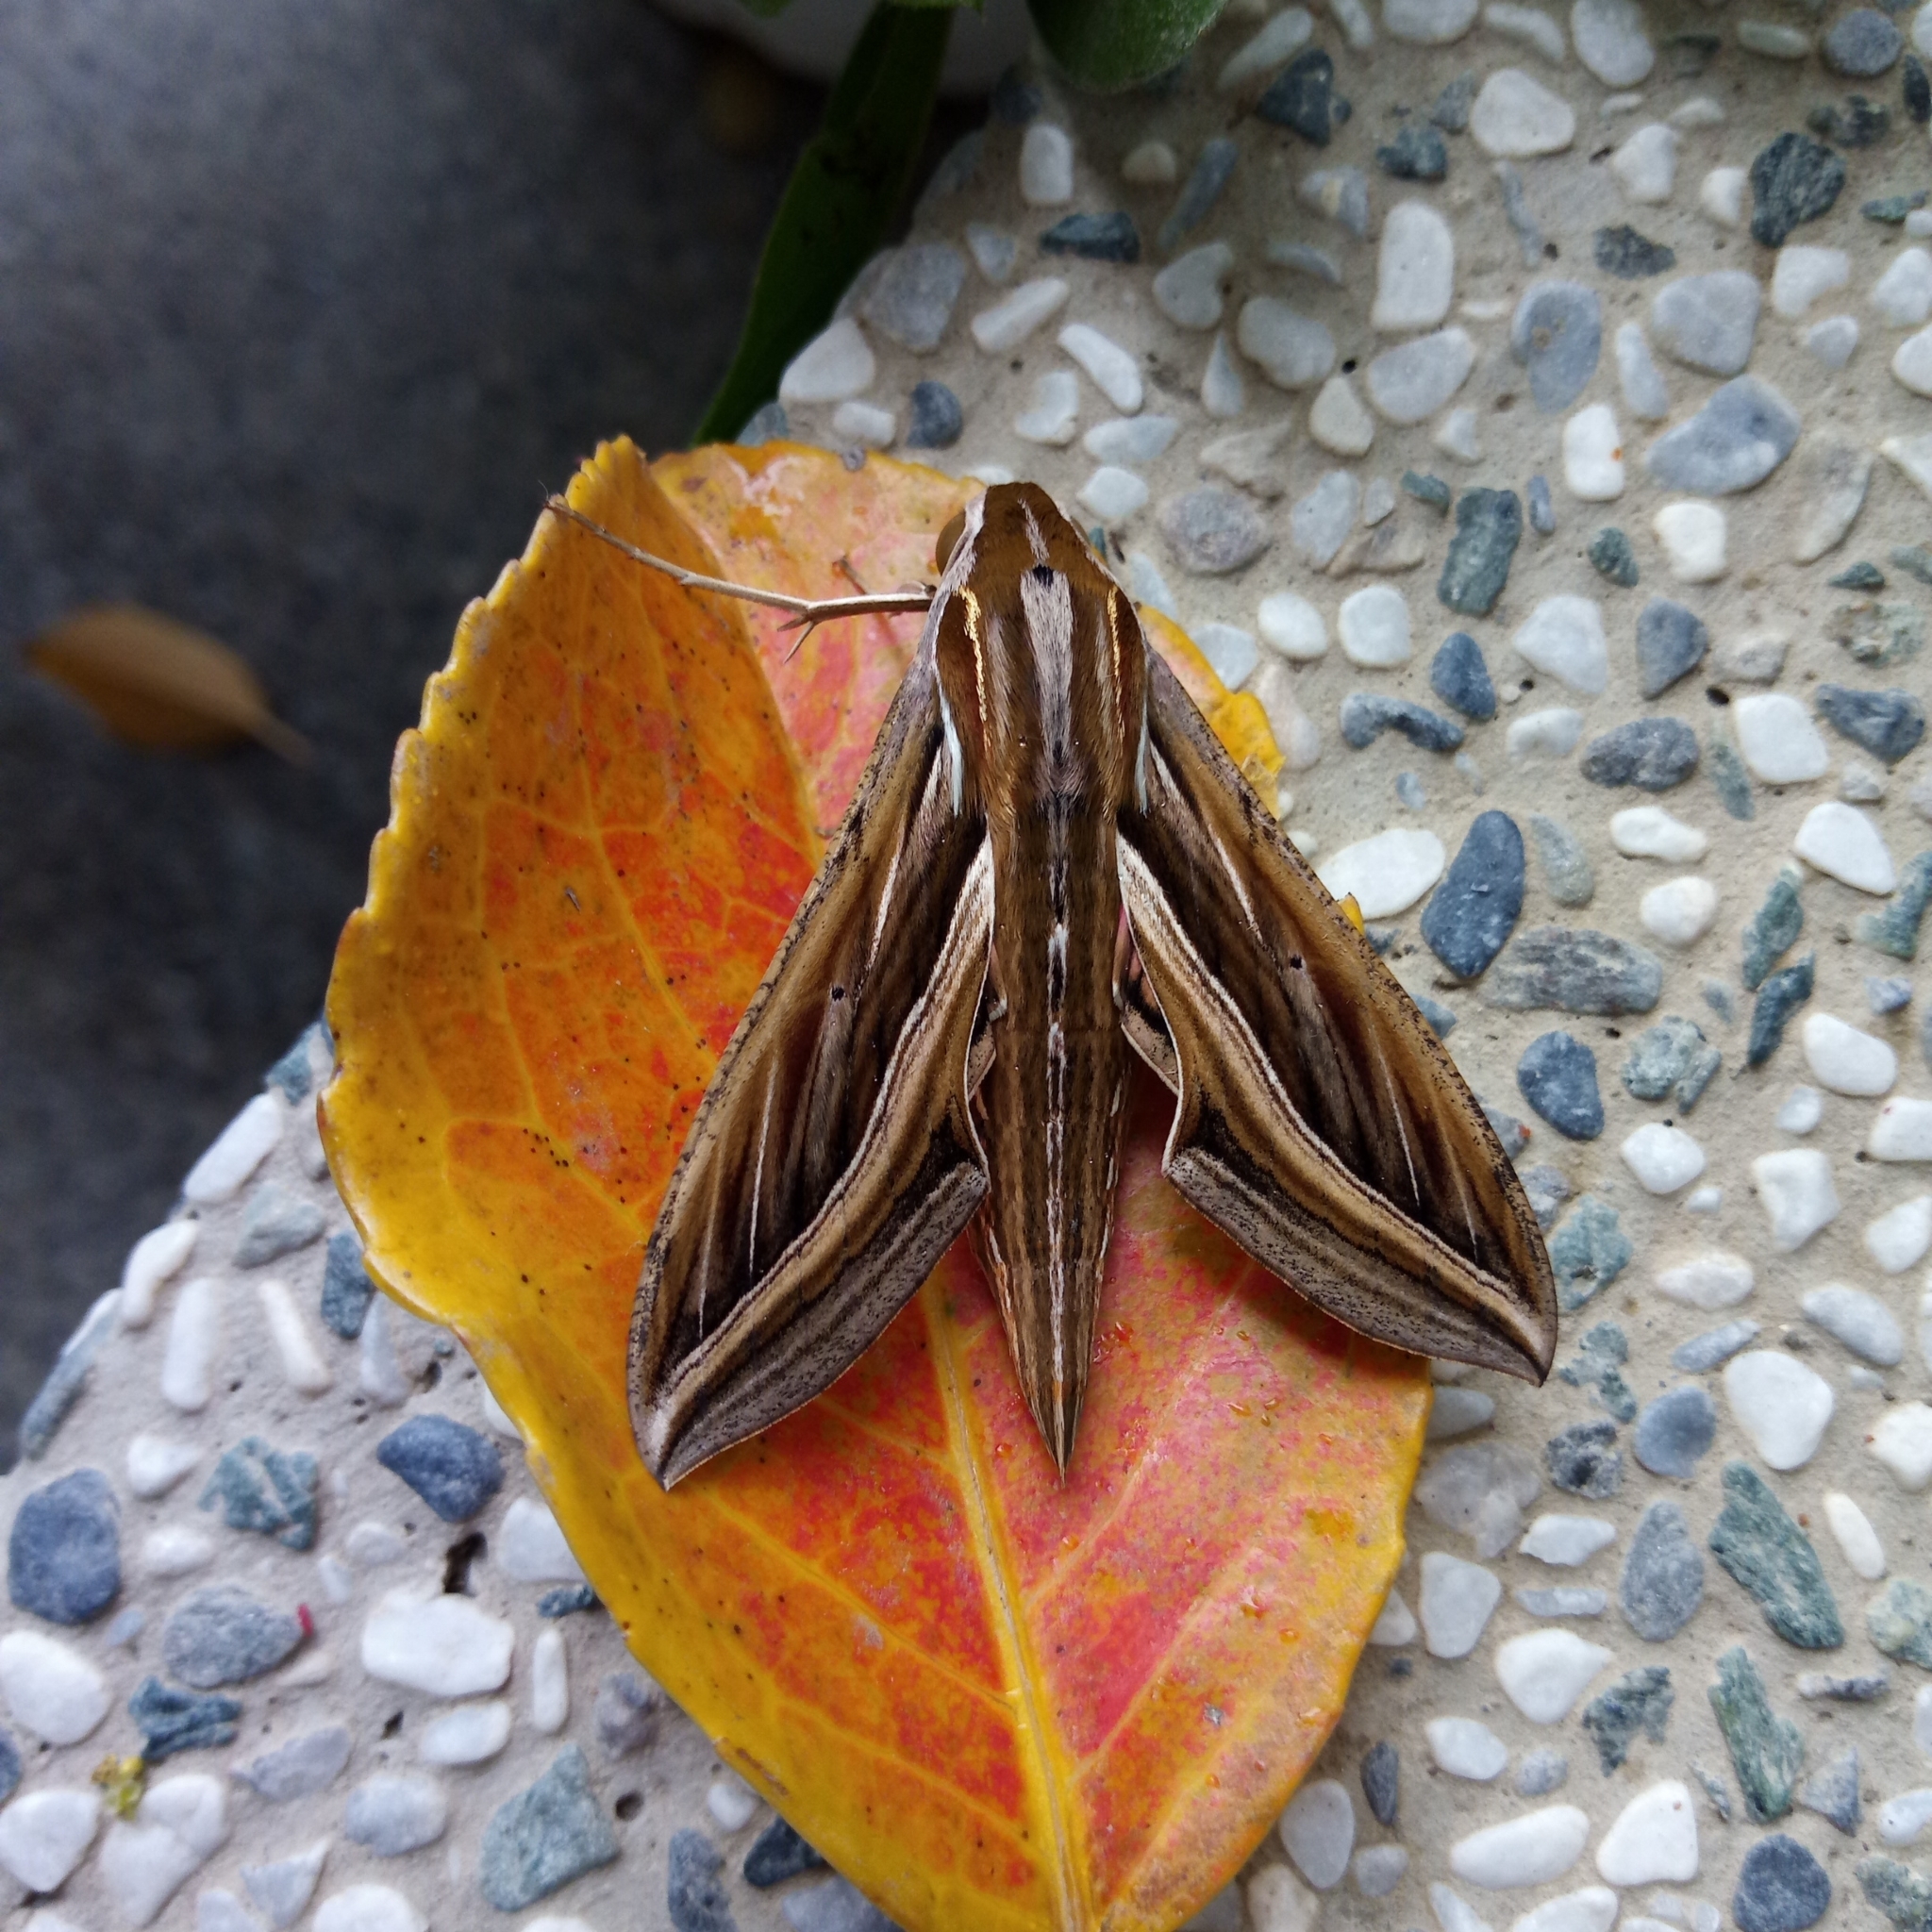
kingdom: Animalia
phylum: Arthropoda
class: Insecta
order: Lepidoptera
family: Sphingidae
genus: Hippotion
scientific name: Hippotion celerio
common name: Silver-striped hawk-moth
